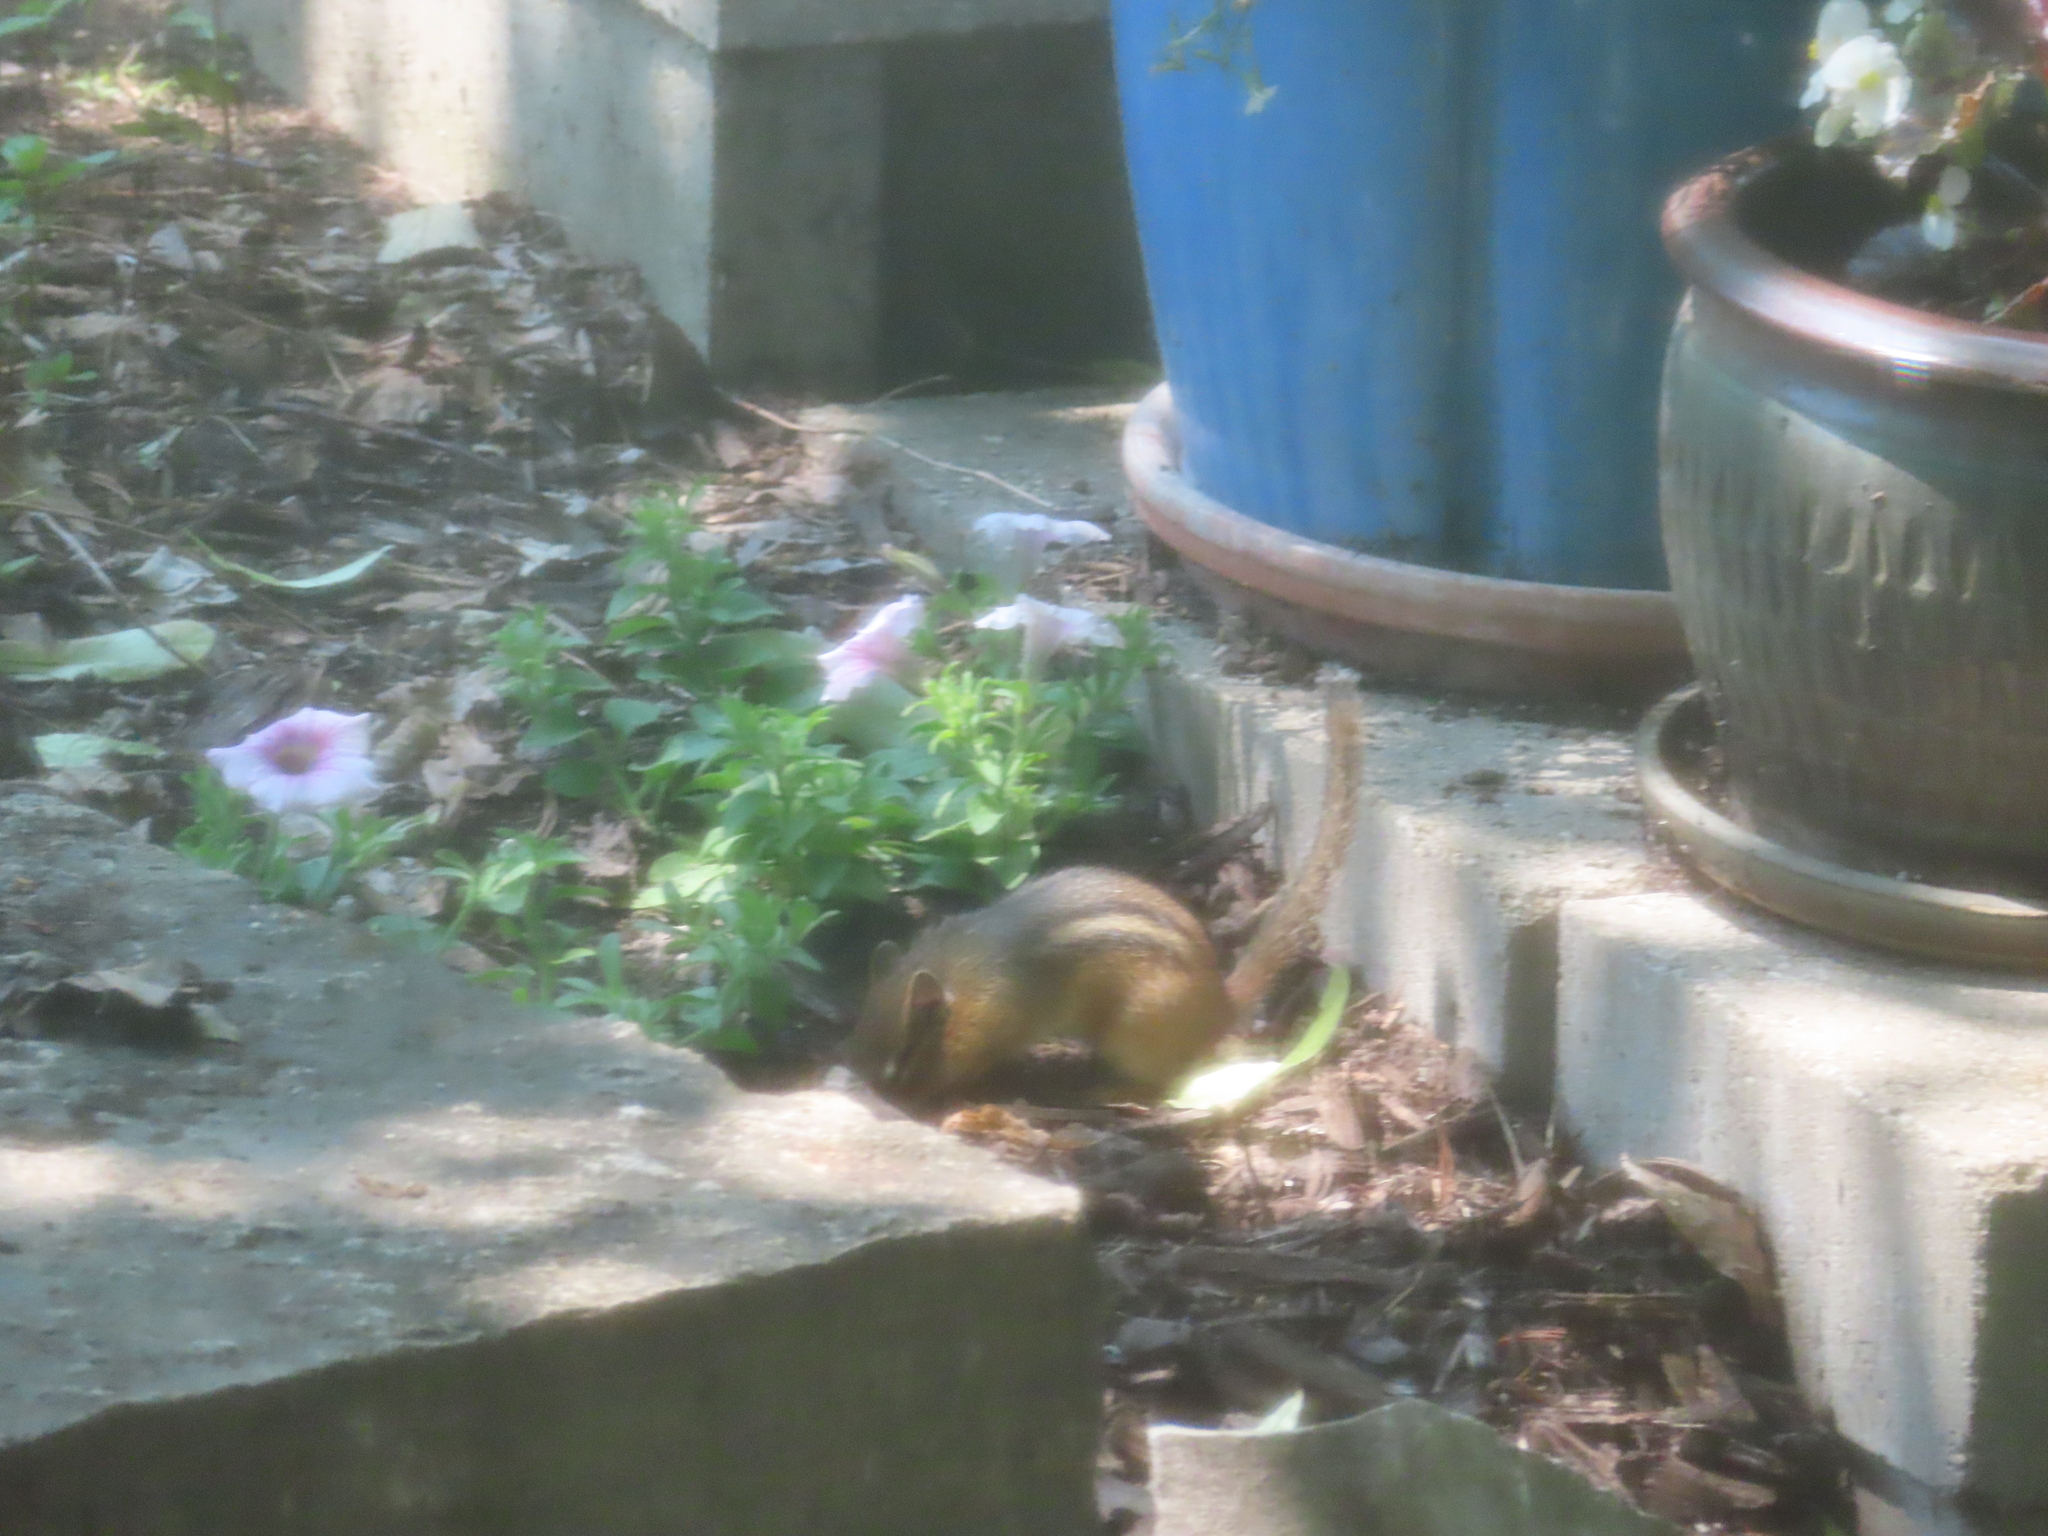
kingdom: Animalia
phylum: Chordata
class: Mammalia
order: Rodentia
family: Sciuridae
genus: Tamias
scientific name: Tamias striatus
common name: Eastern chipmunk
